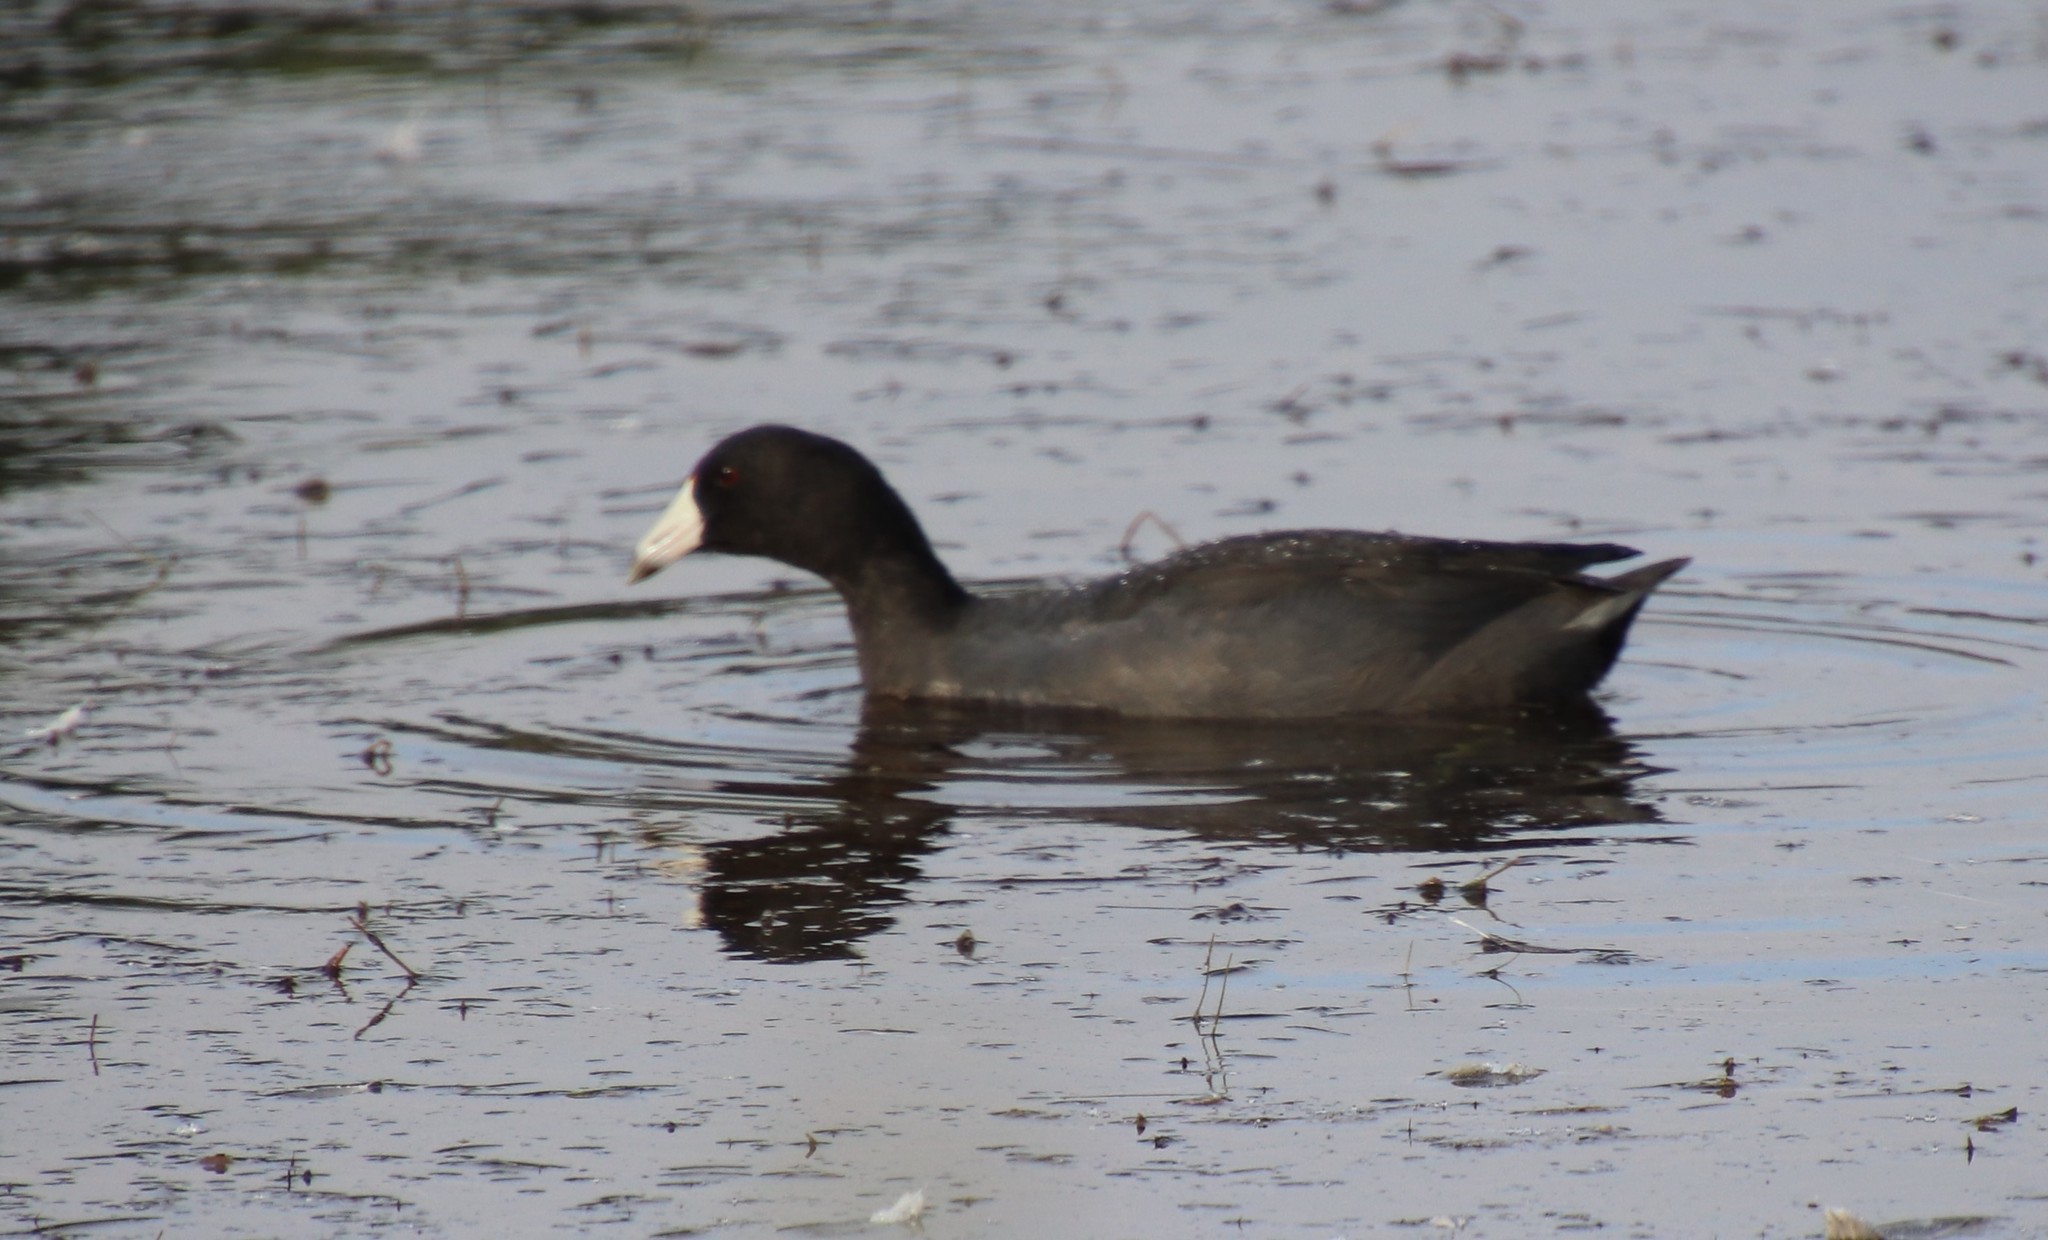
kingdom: Animalia
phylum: Chordata
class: Aves
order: Gruiformes
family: Rallidae
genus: Fulica
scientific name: Fulica americana
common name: American coot
